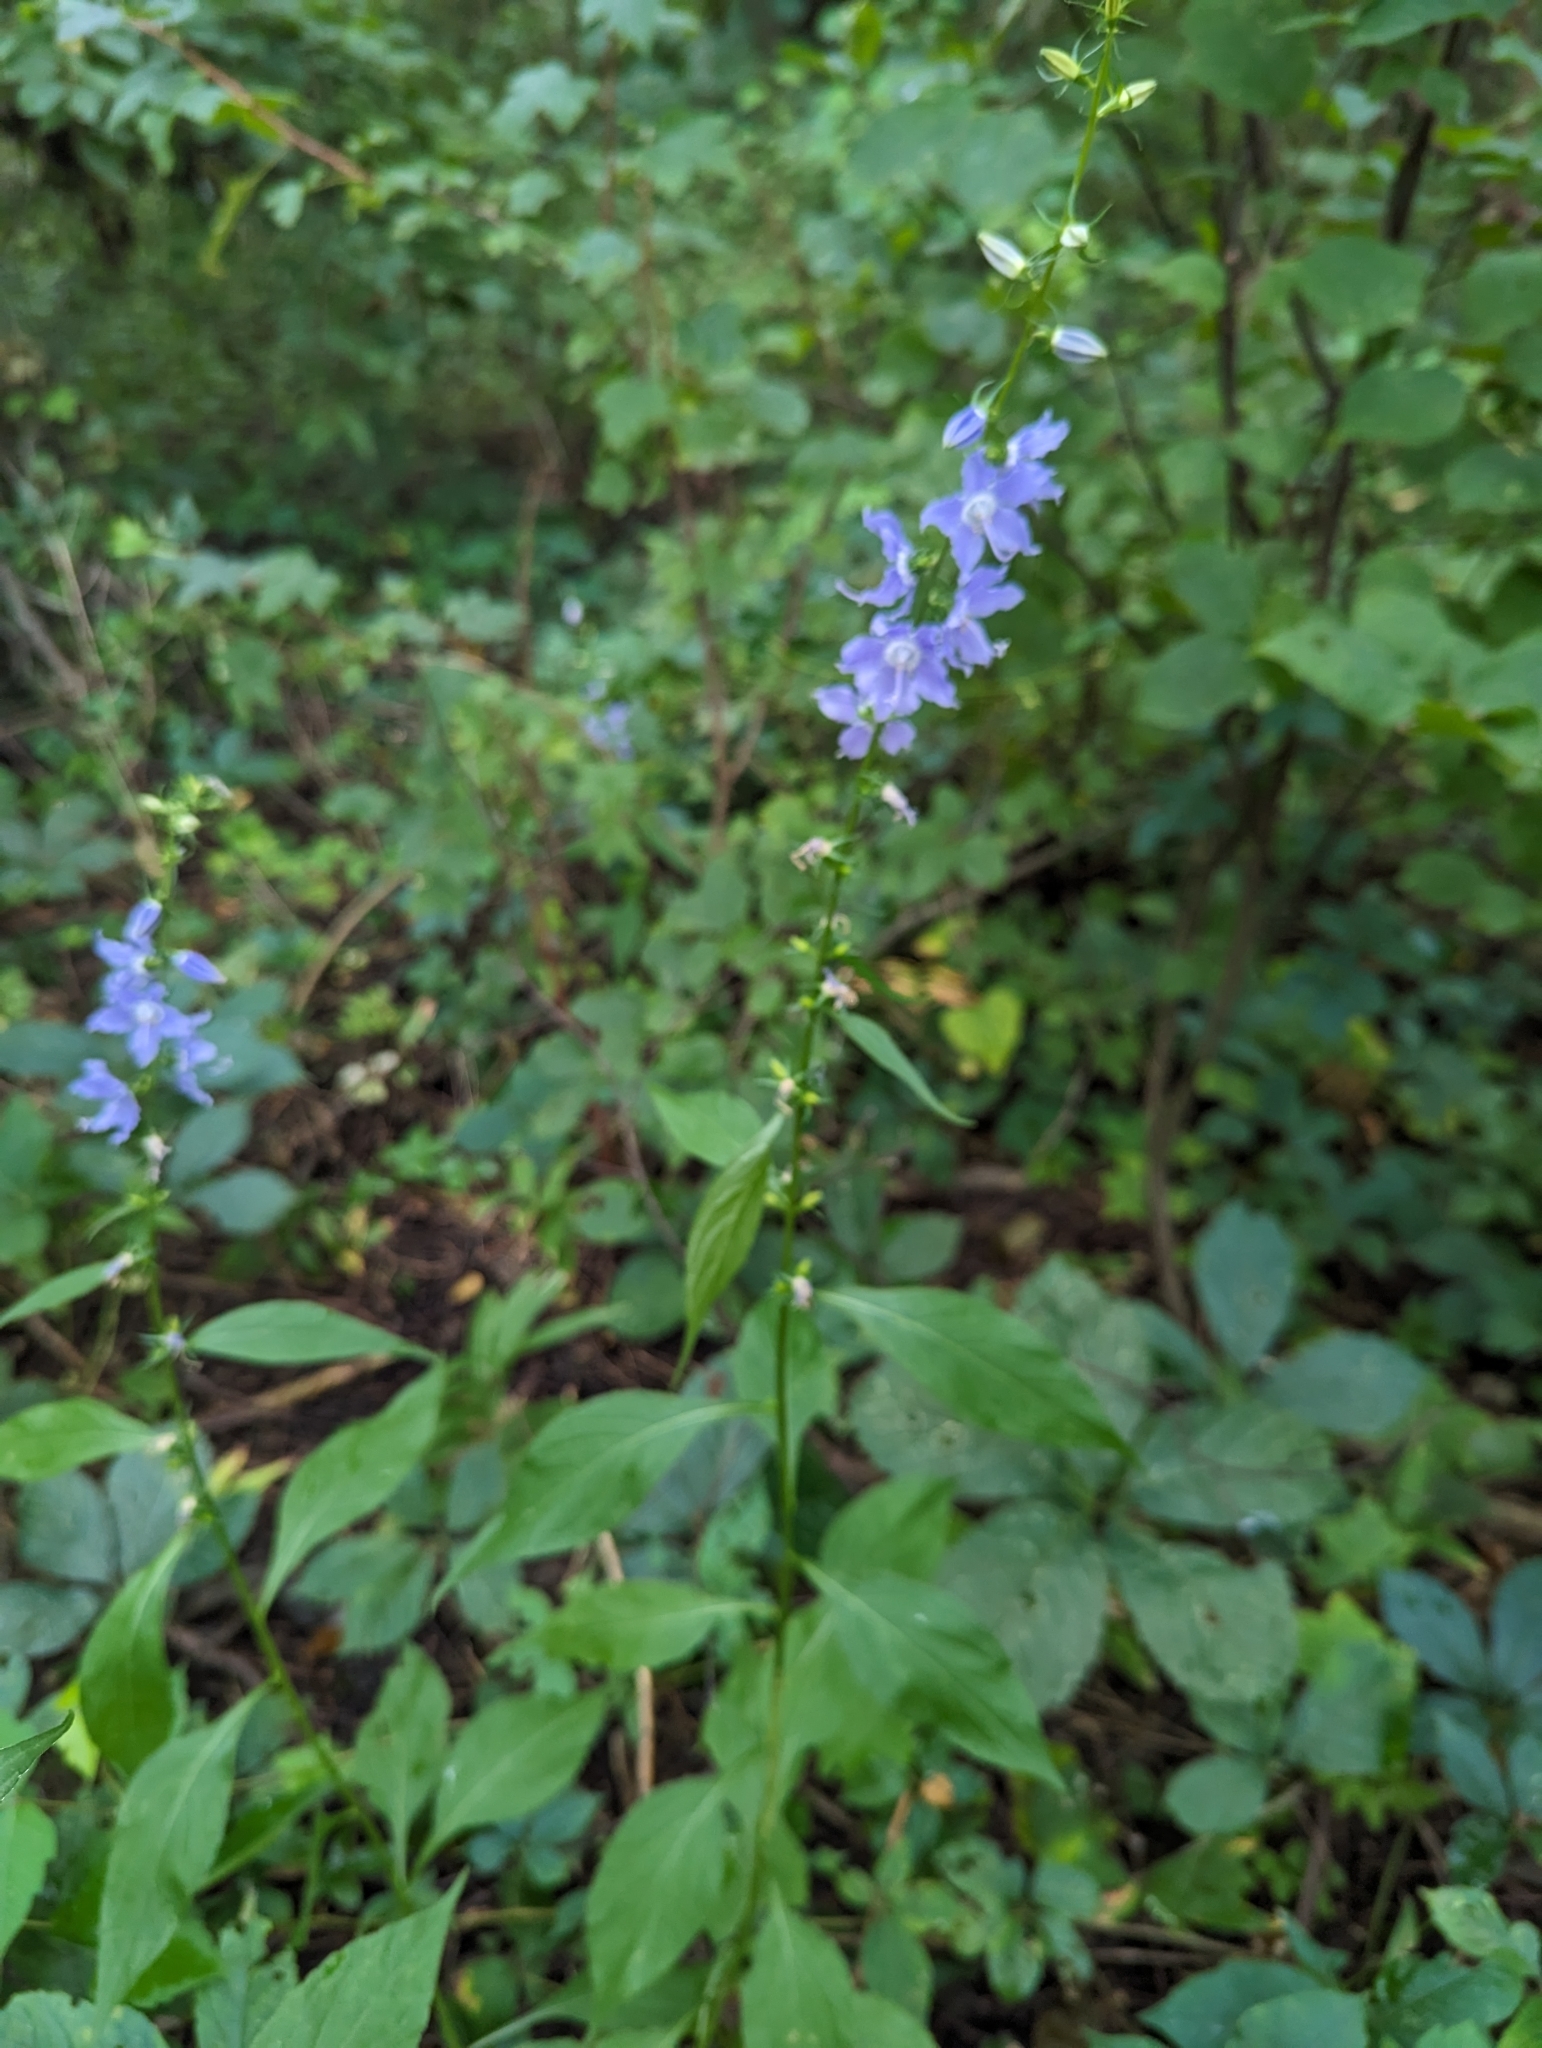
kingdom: Plantae
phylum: Tracheophyta
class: Magnoliopsida
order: Asterales
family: Campanulaceae
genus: Campanulastrum
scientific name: Campanulastrum americanum
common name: American bellflower
